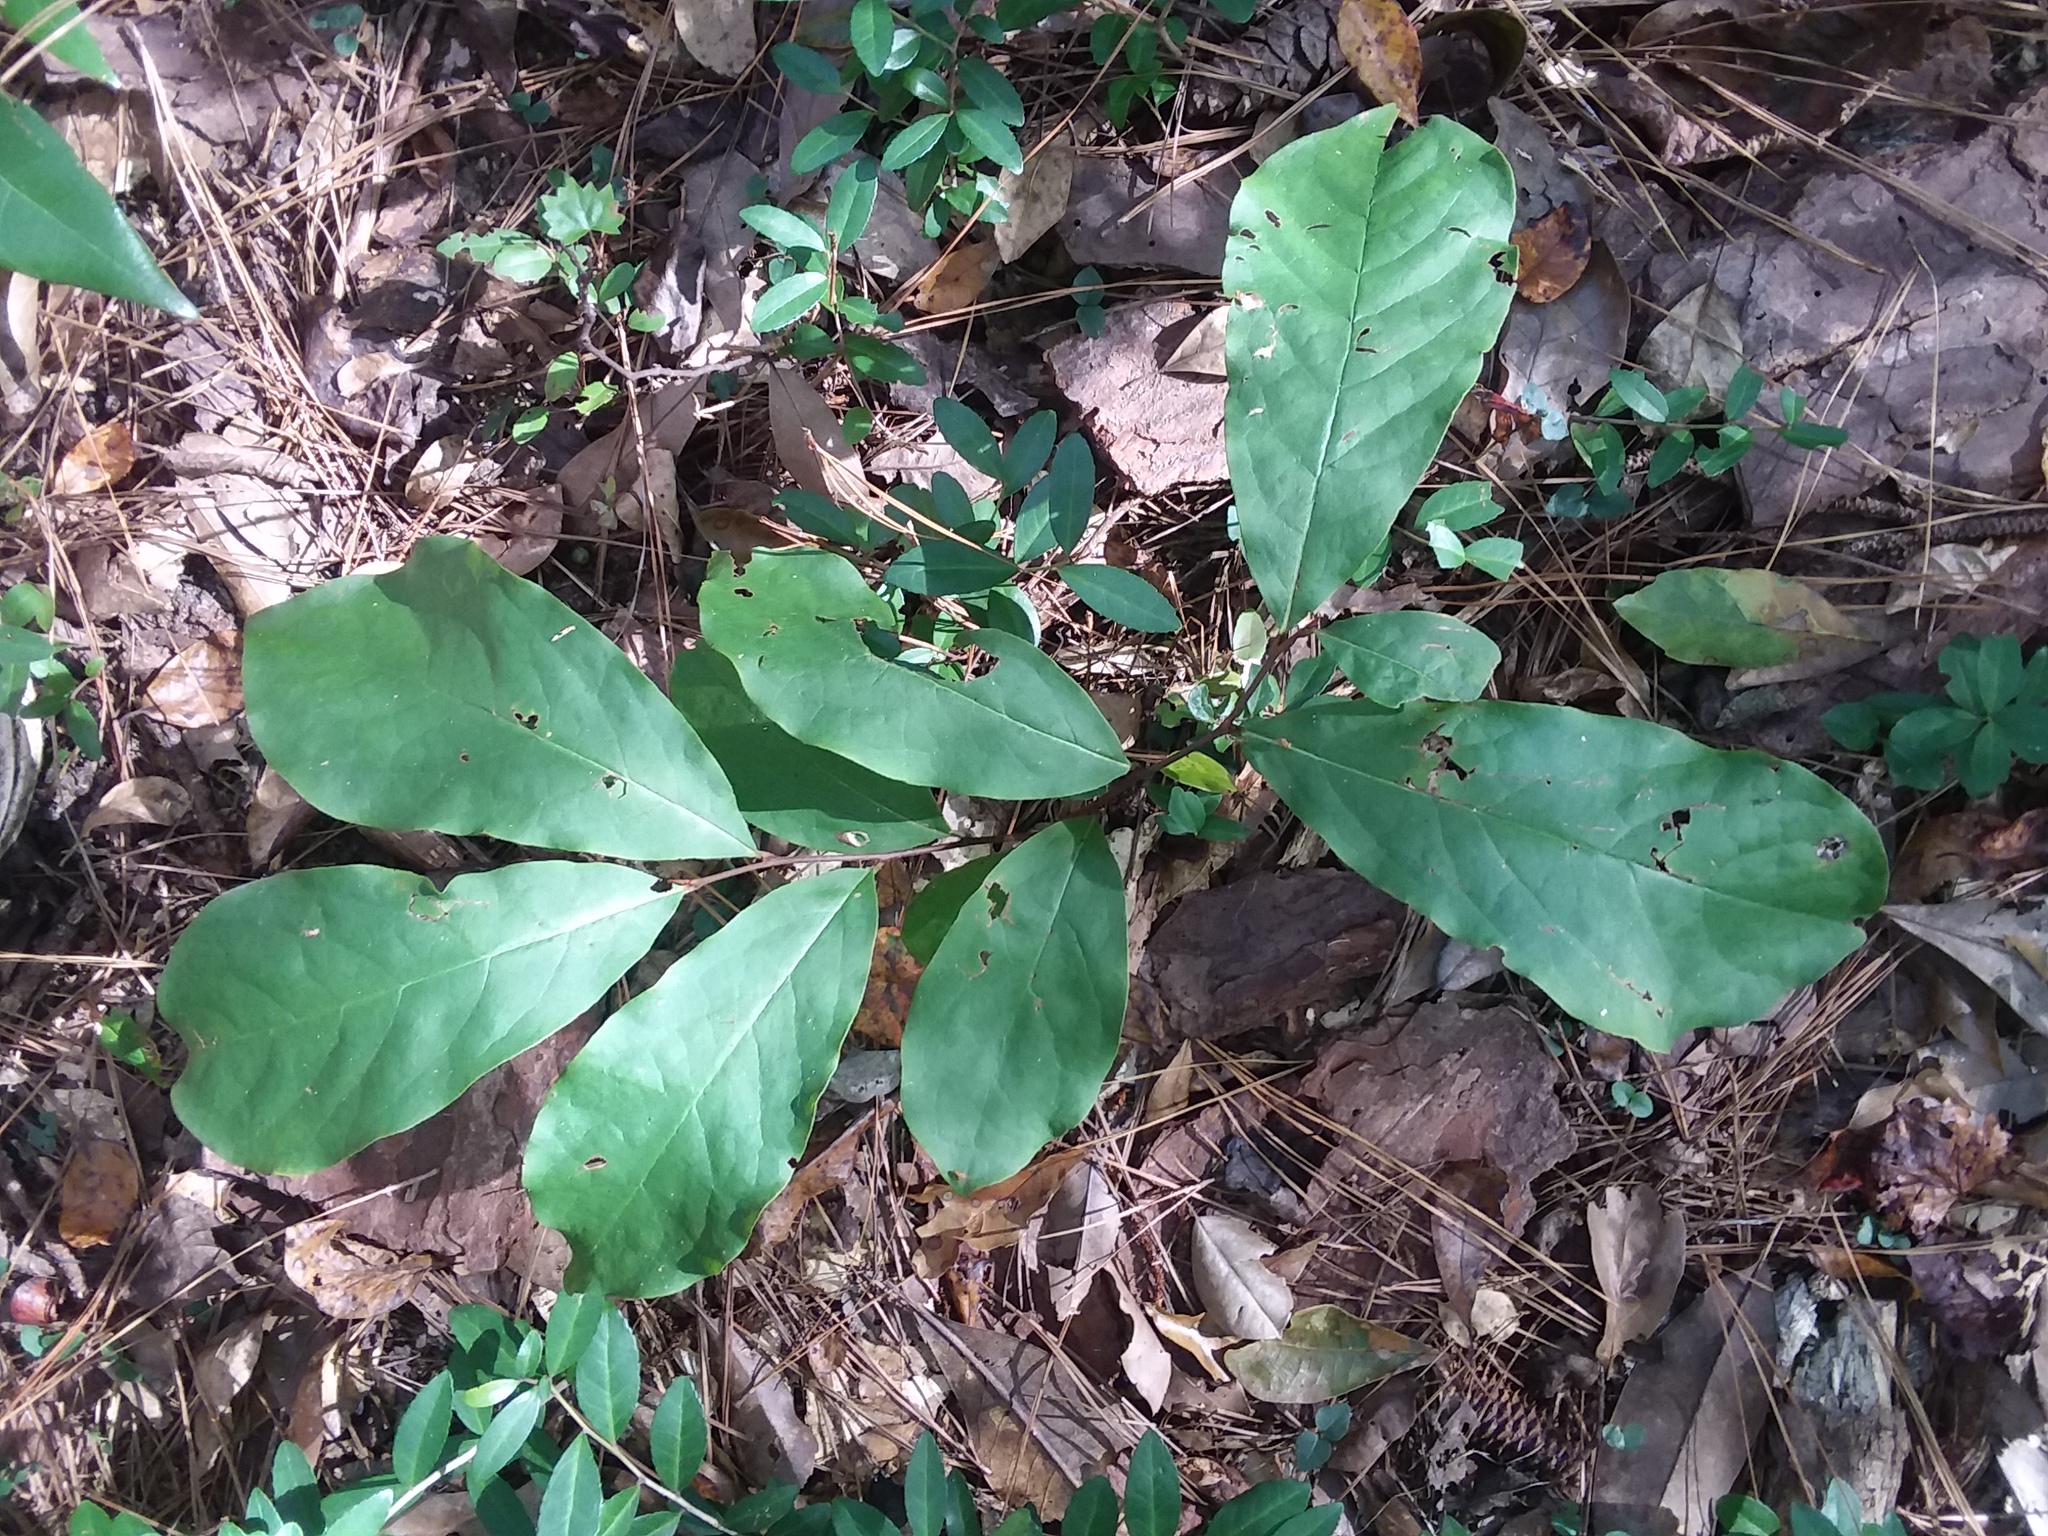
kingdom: Plantae
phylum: Tracheophyta
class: Magnoliopsida
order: Magnoliales
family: Annonaceae
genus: Asimina
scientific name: Asimina parviflora
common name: Dwarf pawpaw
